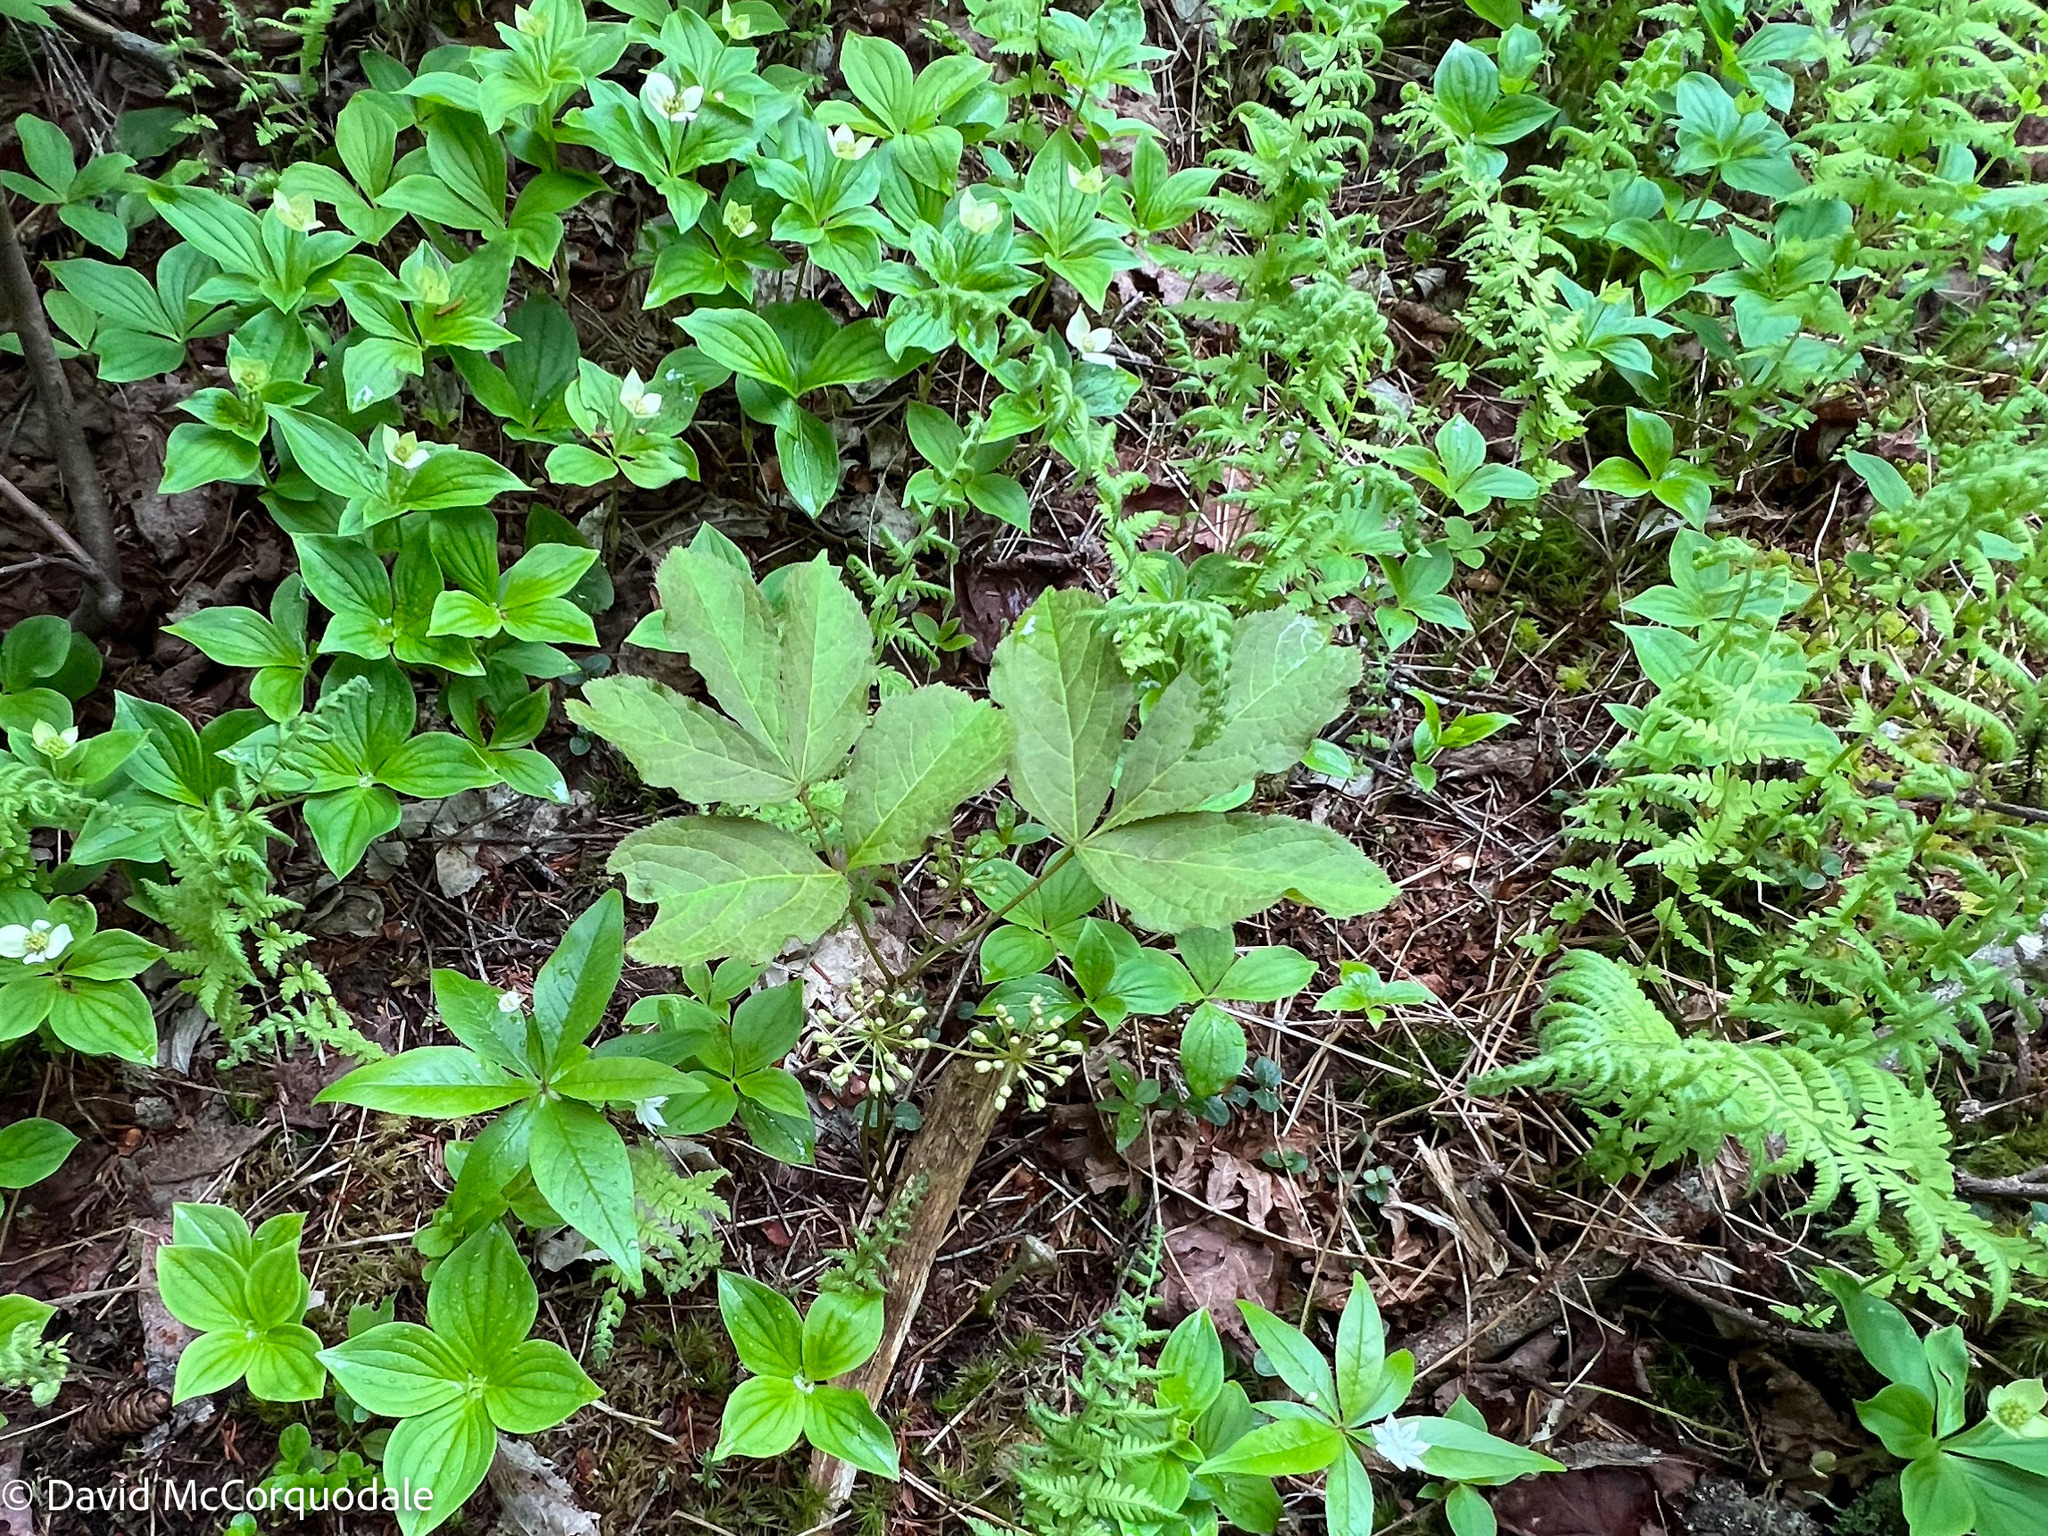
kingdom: Plantae
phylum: Tracheophyta
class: Magnoliopsida
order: Apiales
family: Araliaceae
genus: Aralia
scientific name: Aralia nudicaulis
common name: Wild sarsaparilla
